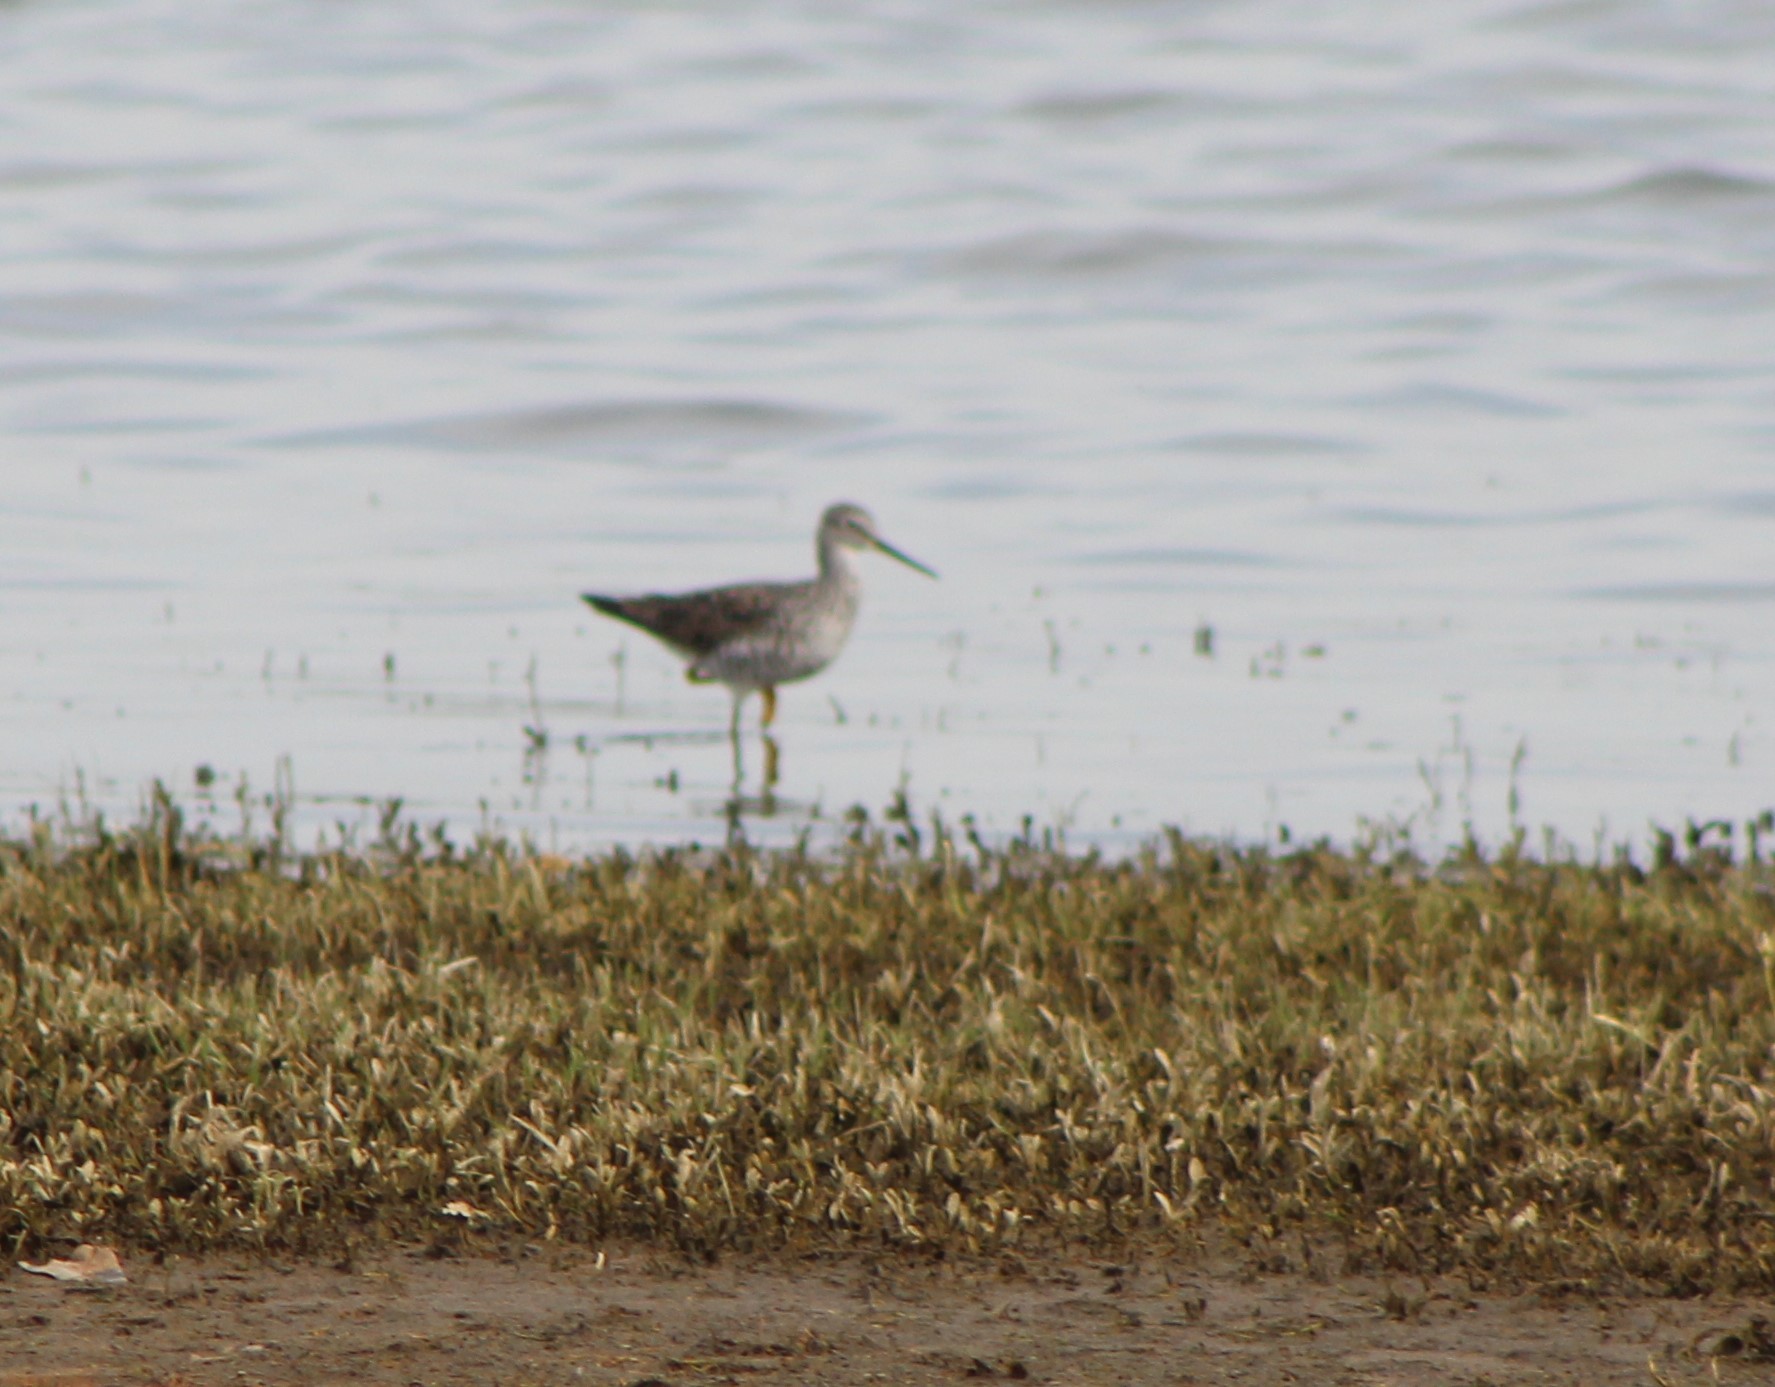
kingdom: Animalia
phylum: Chordata
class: Aves
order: Charadriiformes
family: Scolopacidae
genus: Tringa
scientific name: Tringa flavipes
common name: Lesser yellowlegs
